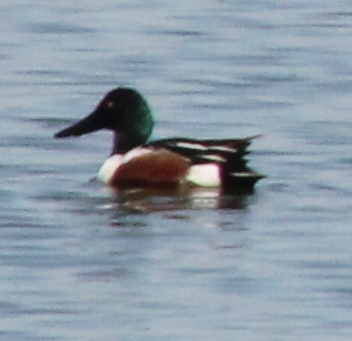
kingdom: Animalia
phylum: Chordata
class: Aves
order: Anseriformes
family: Anatidae
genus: Spatula
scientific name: Spatula clypeata
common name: Northern shoveler
